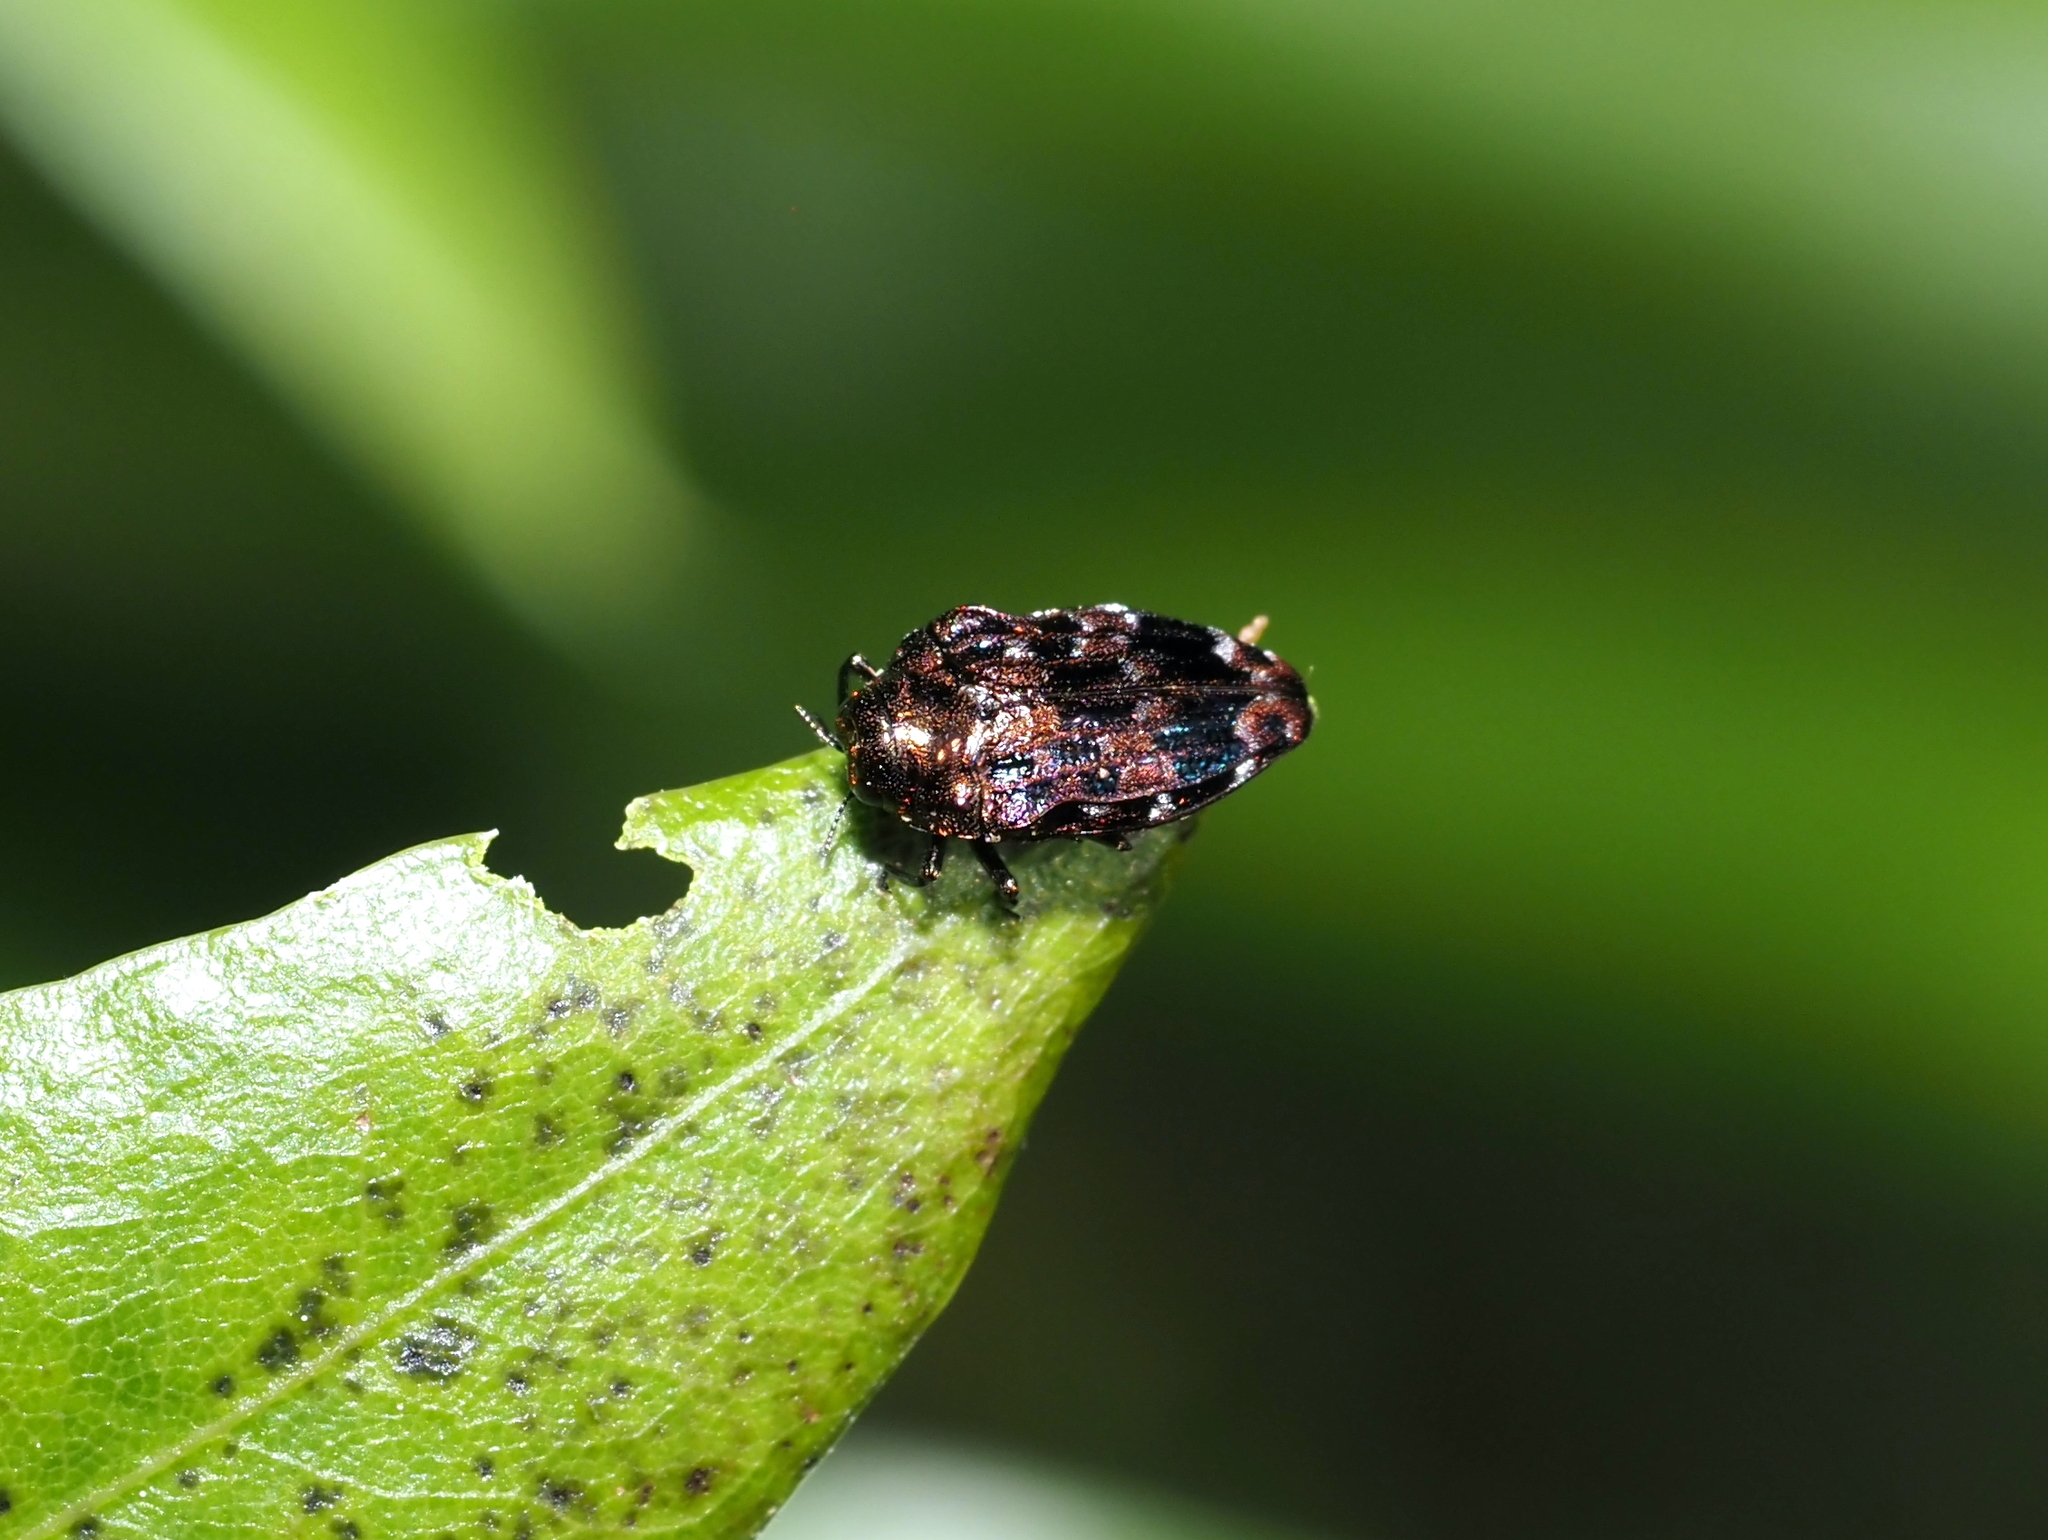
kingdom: Animalia
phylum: Arthropoda
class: Insecta
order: Coleoptera
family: Buprestidae
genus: Brachys
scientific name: Brachys ovatus
